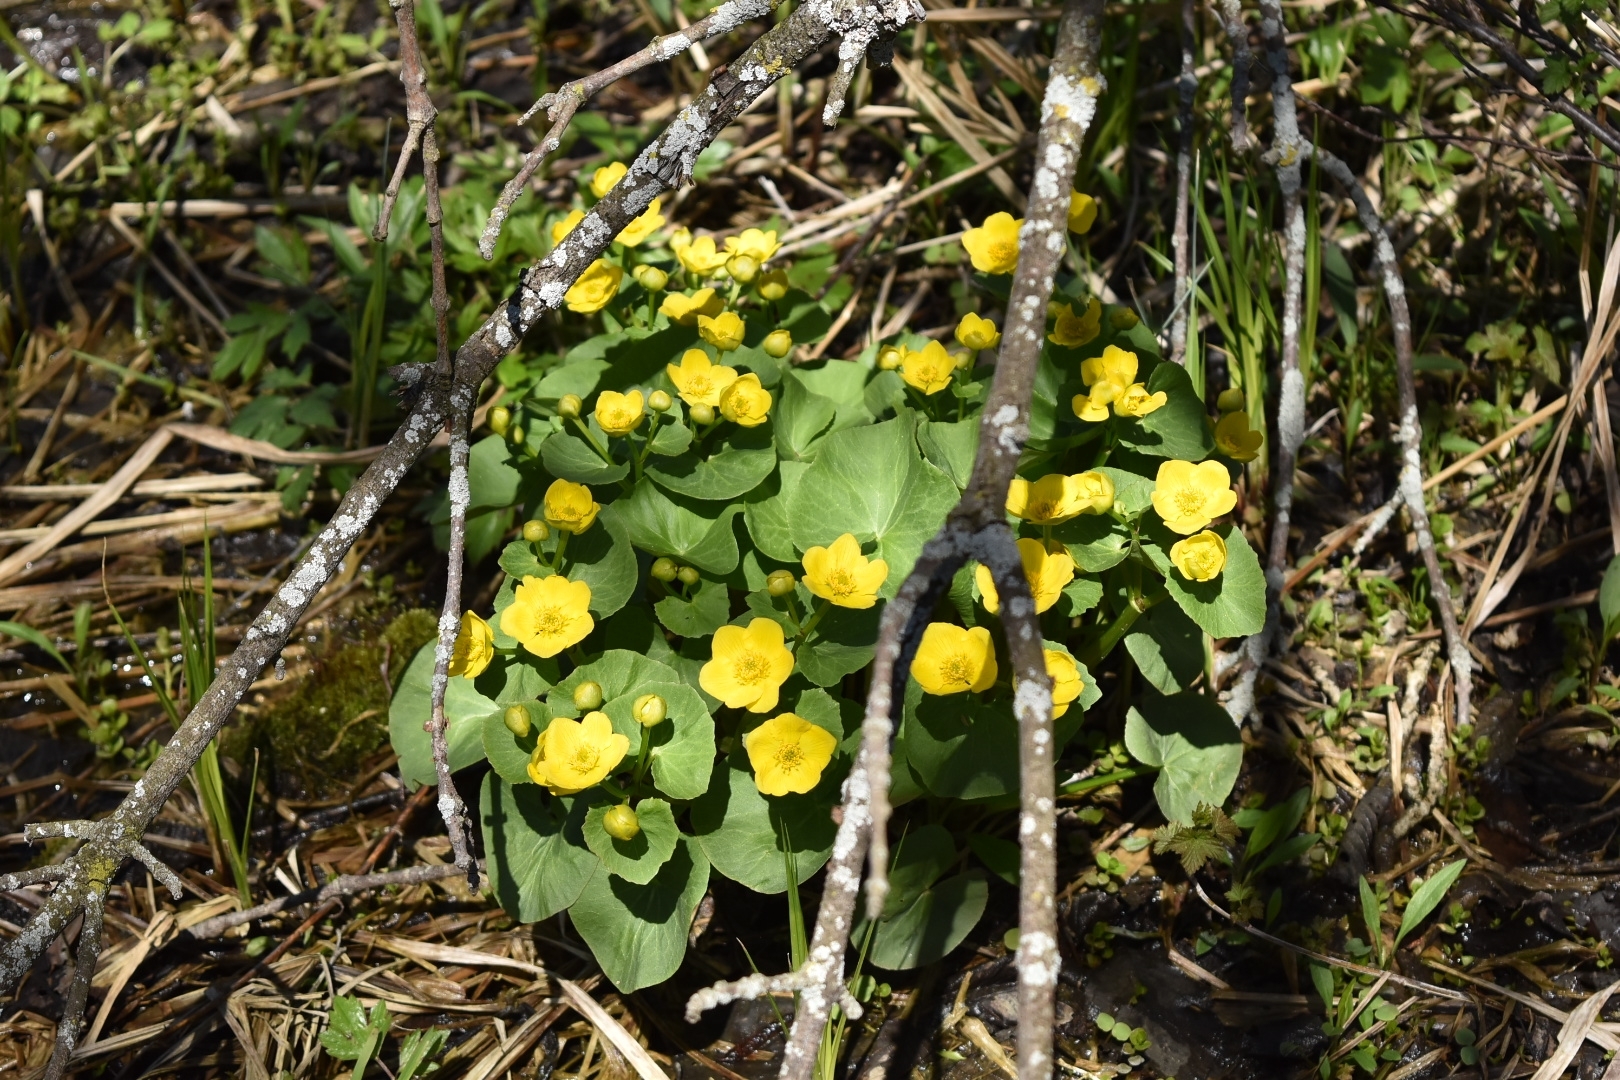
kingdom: Plantae
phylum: Tracheophyta
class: Magnoliopsida
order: Ranunculales
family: Ranunculaceae
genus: Caltha
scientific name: Caltha palustris
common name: Marsh marigold
